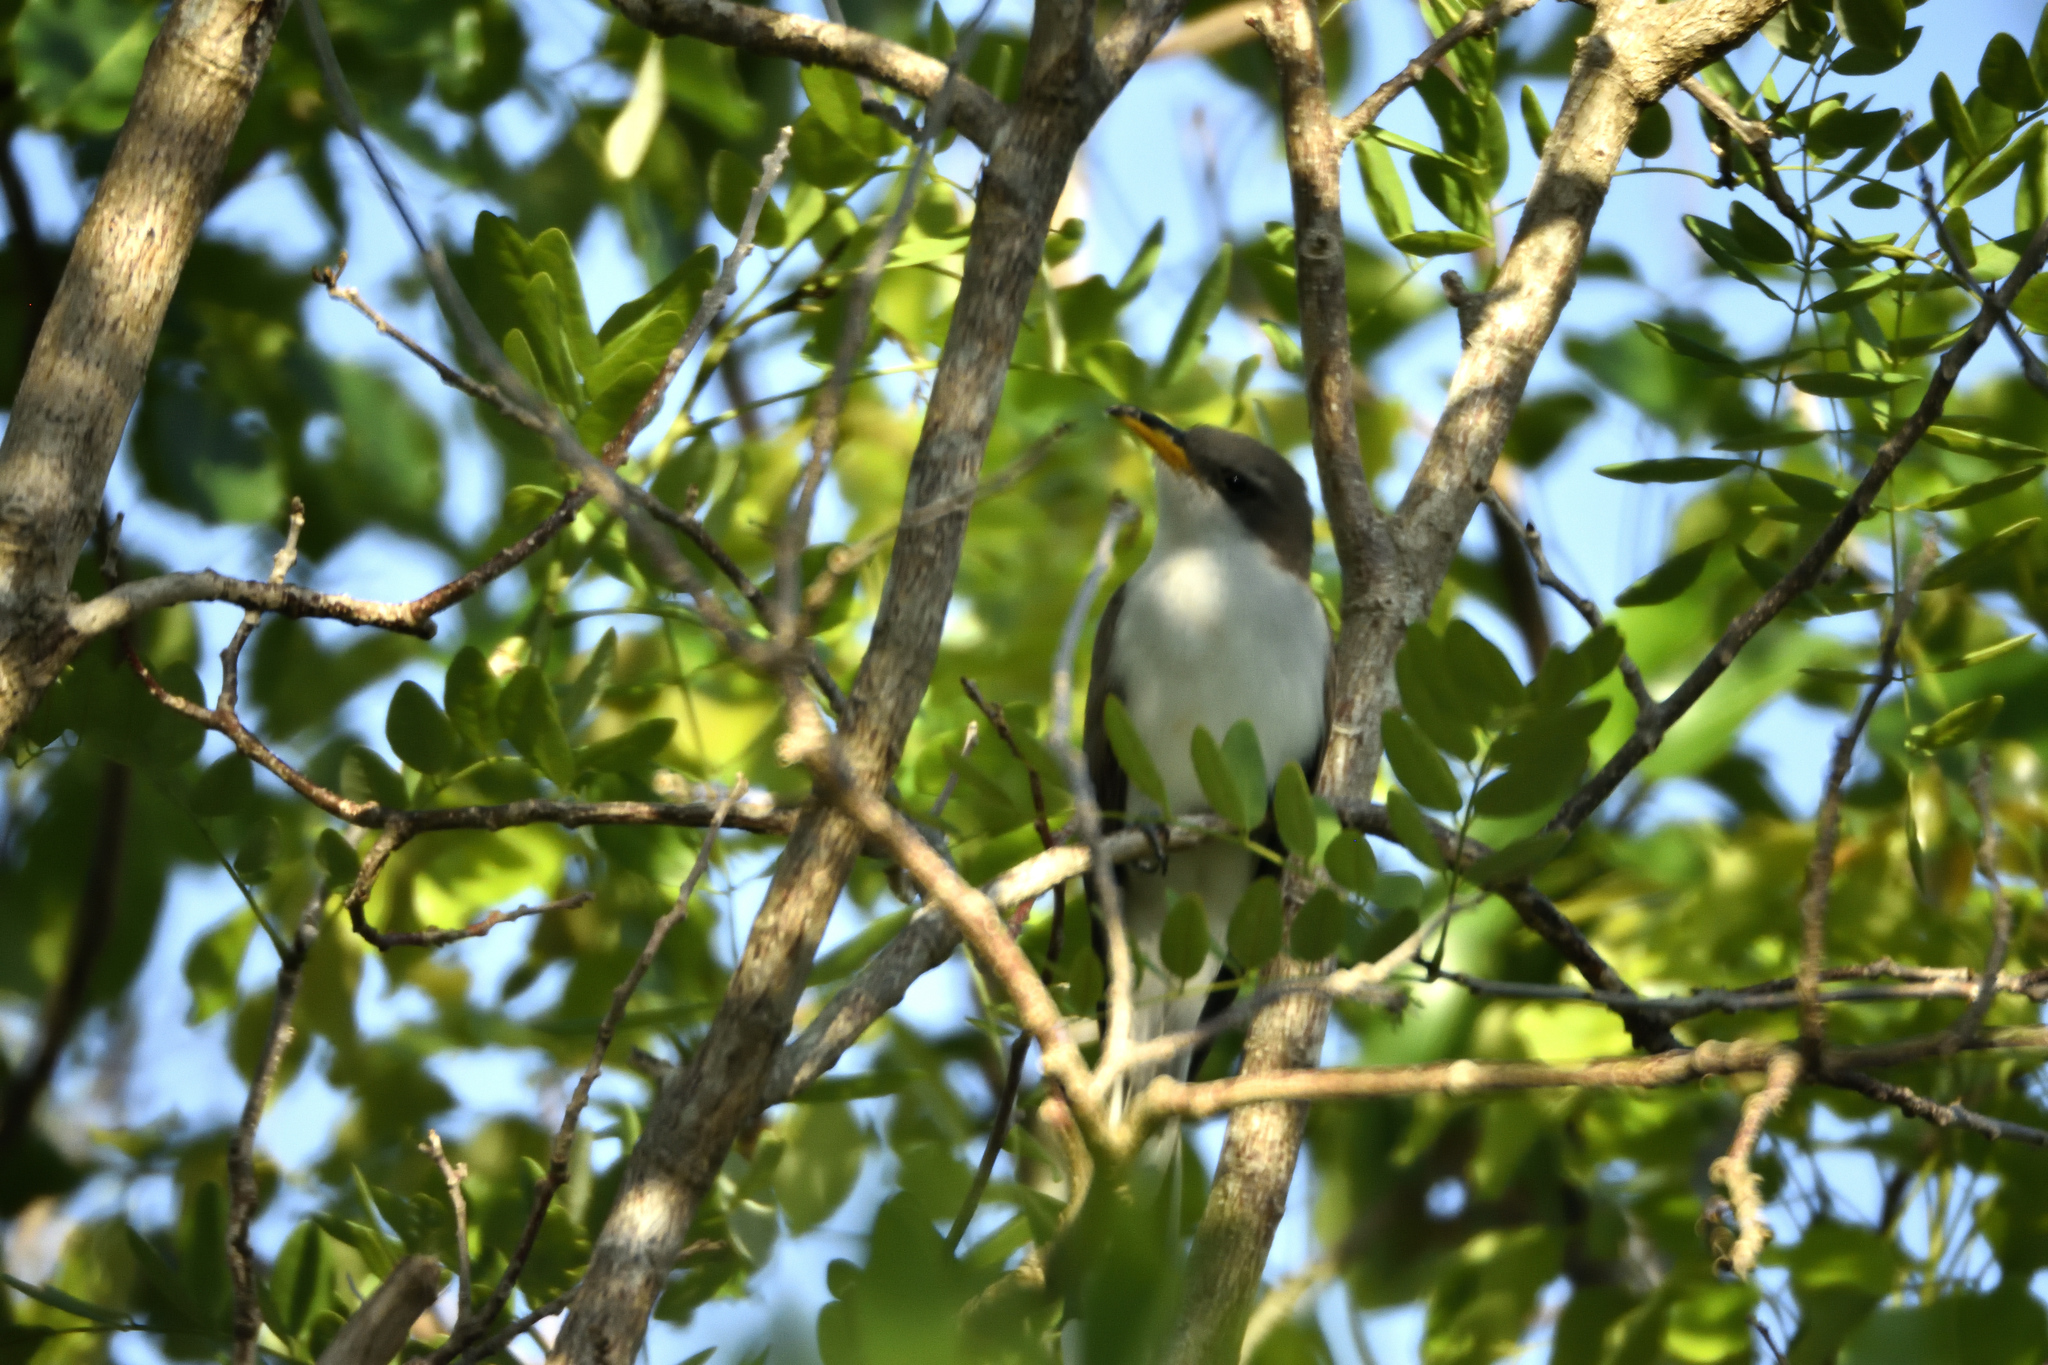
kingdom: Animalia
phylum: Chordata
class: Aves
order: Cuculiformes
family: Cuculidae
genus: Coccyzus
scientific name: Coccyzus americanus
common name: Yellow-billed cuckoo
